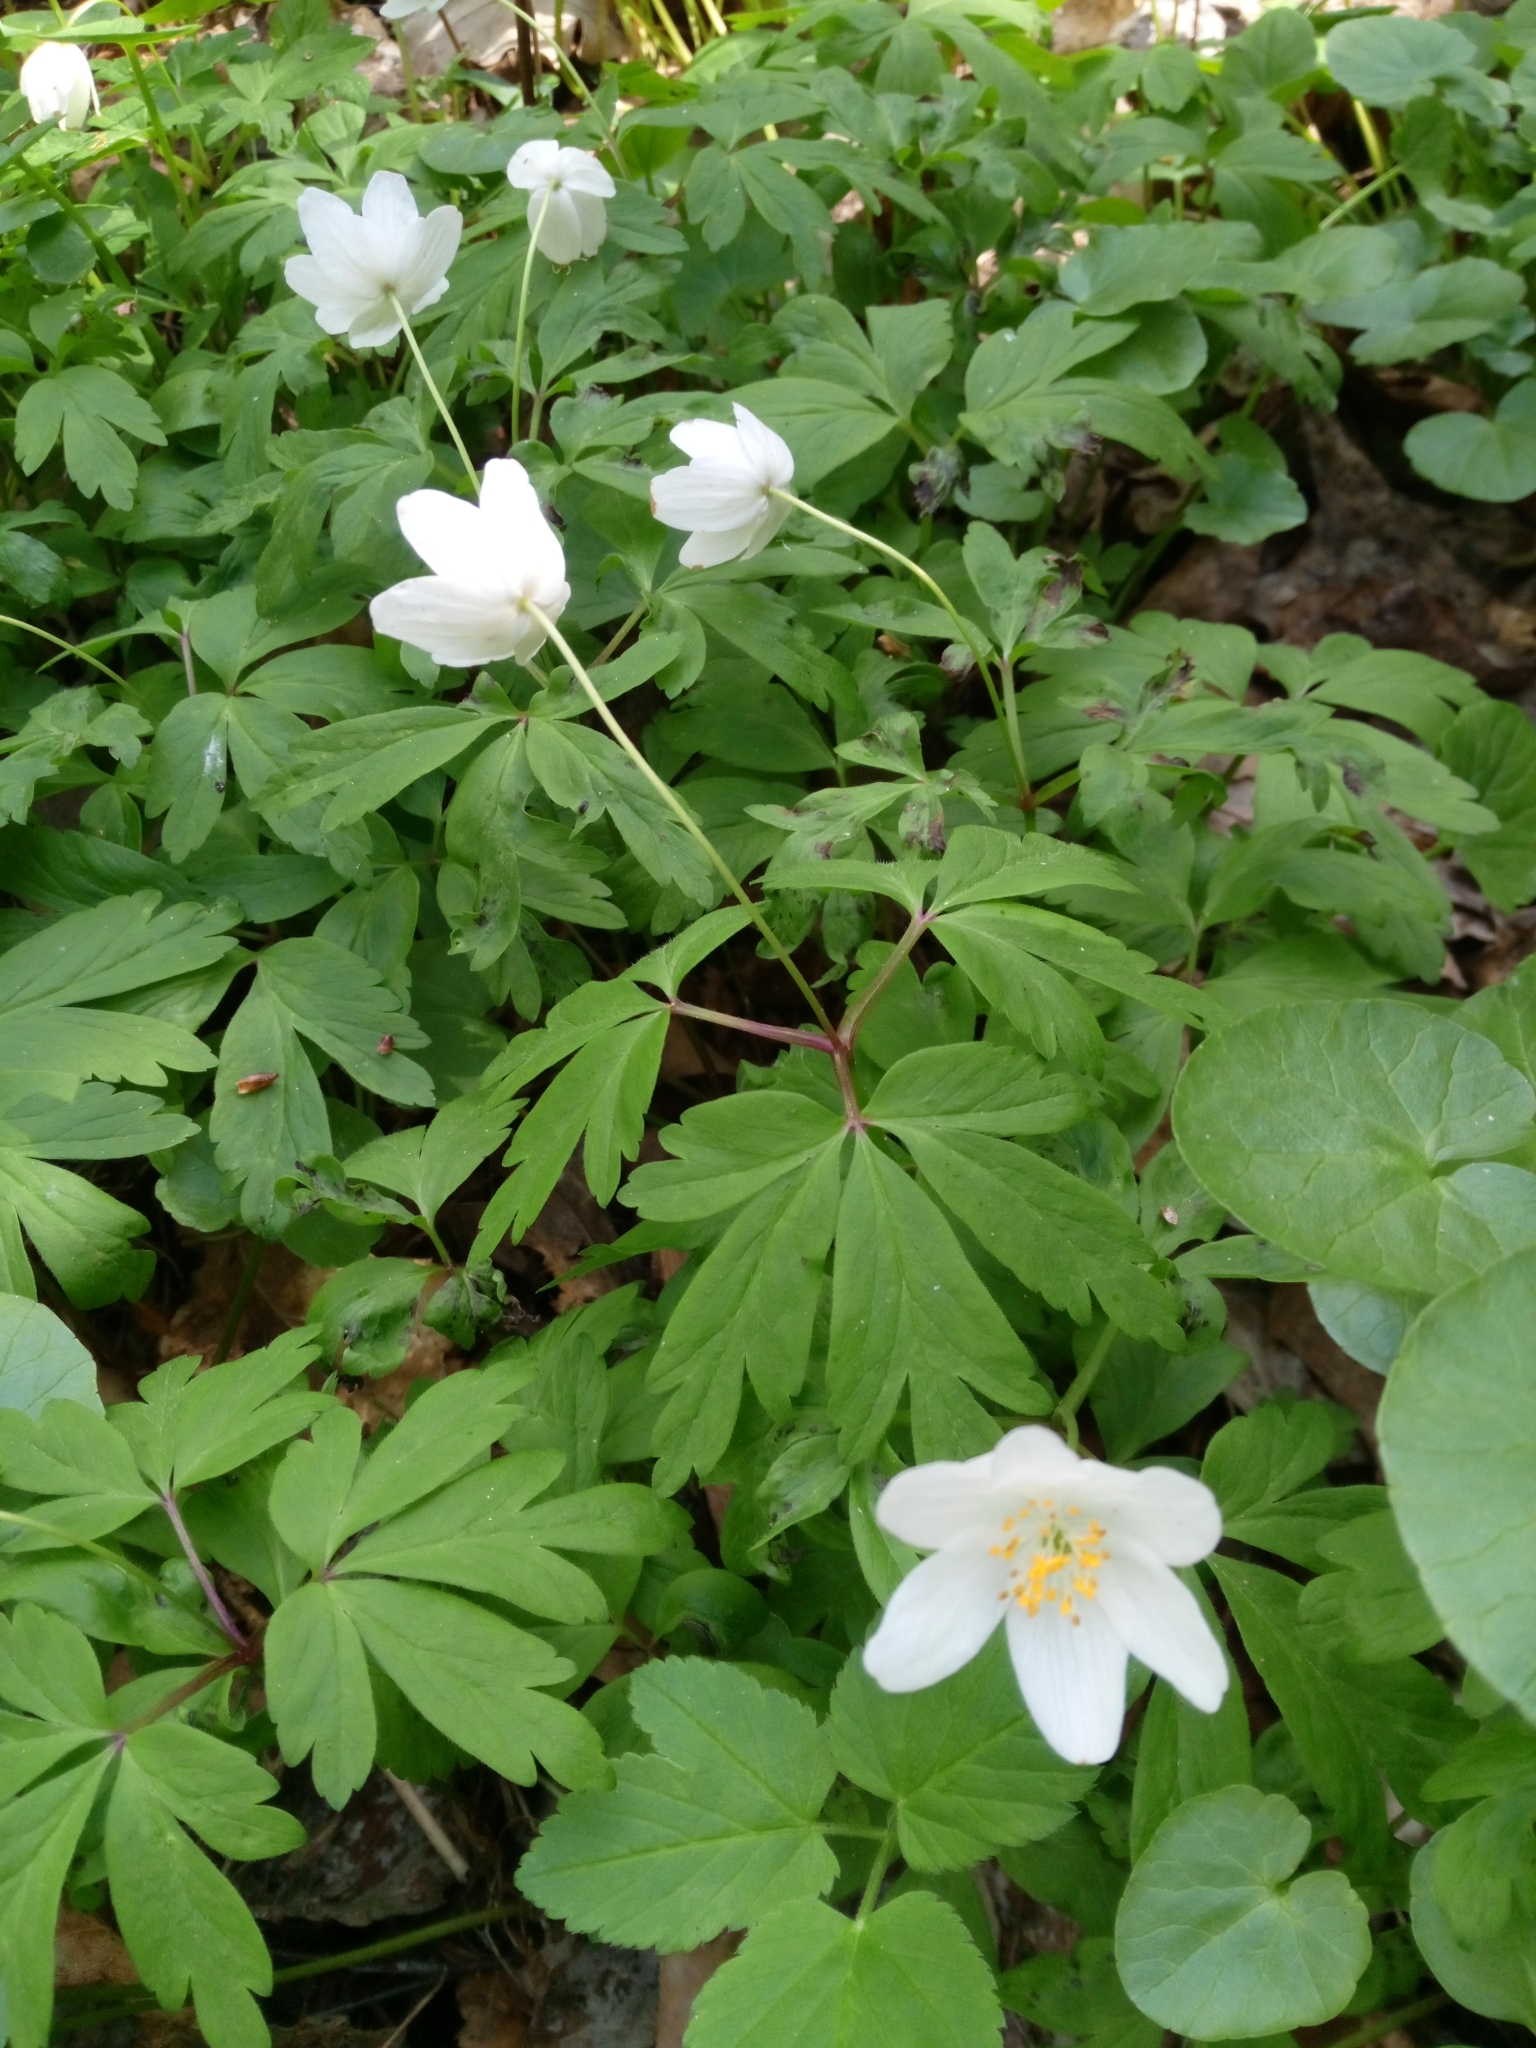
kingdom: Plantae
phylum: Tracheophyta
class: Magnoliopsida
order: Ranunculales
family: Ranunculaceae
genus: Anemone
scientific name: Anemone nemorosa
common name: Wood anemone
